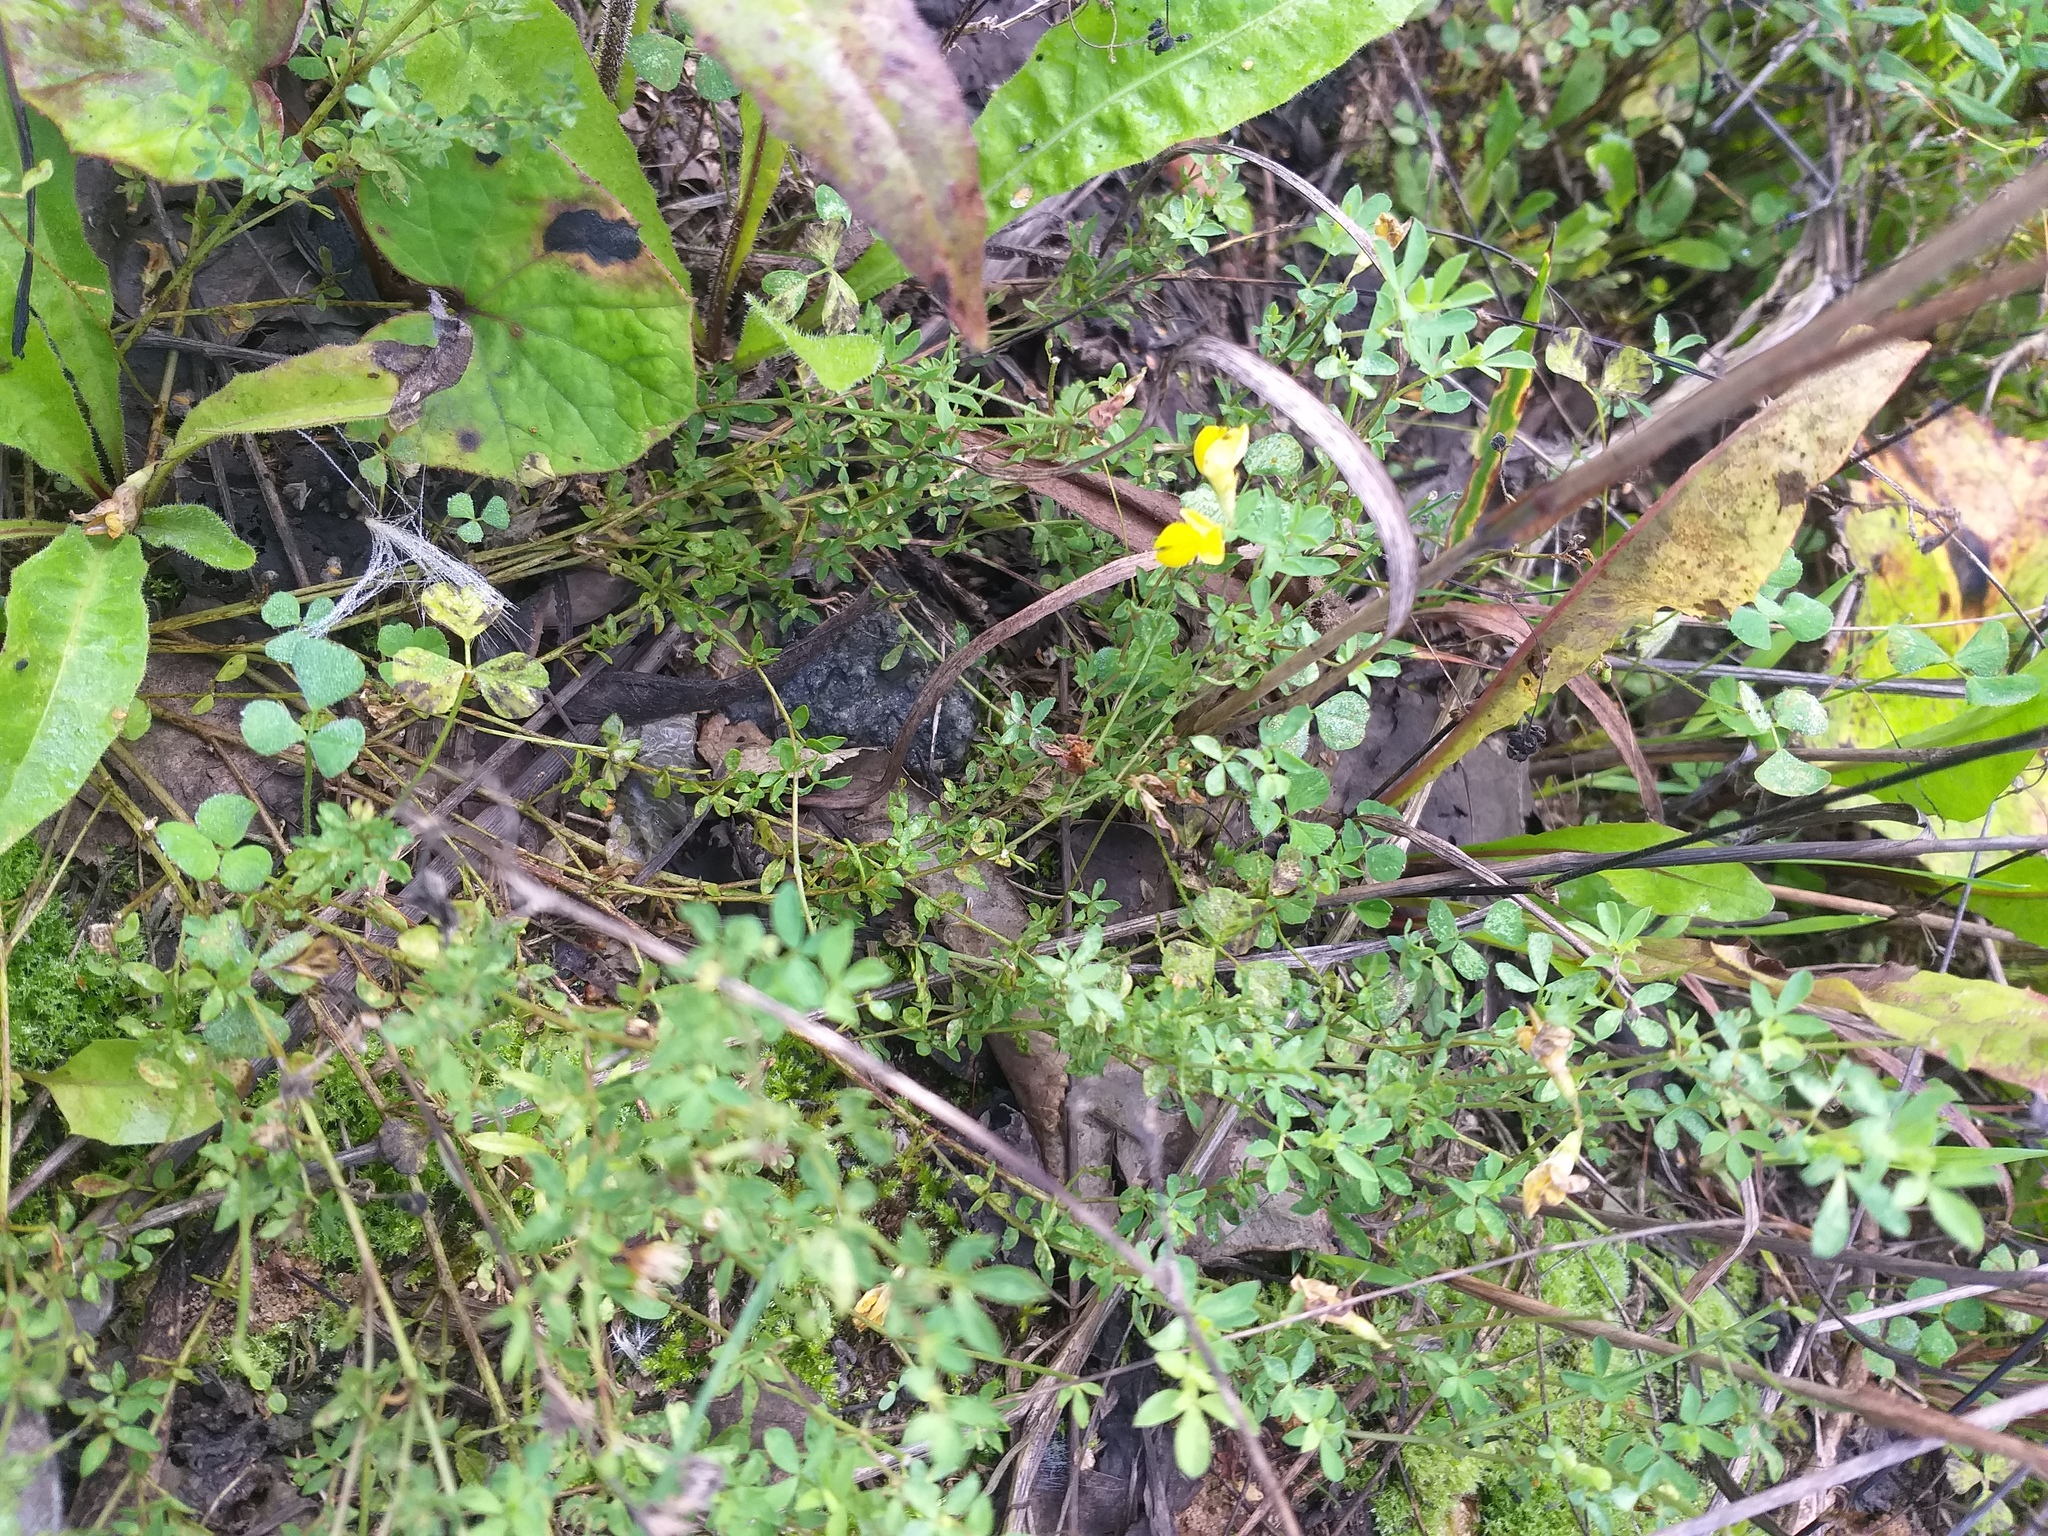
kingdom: Plantae
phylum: Tracheophyta
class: Magnoliopsida
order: Fabales
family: Fabaceae
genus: Lotus
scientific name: Lotus corniculatus
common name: Common bird's-foot-trefoil
